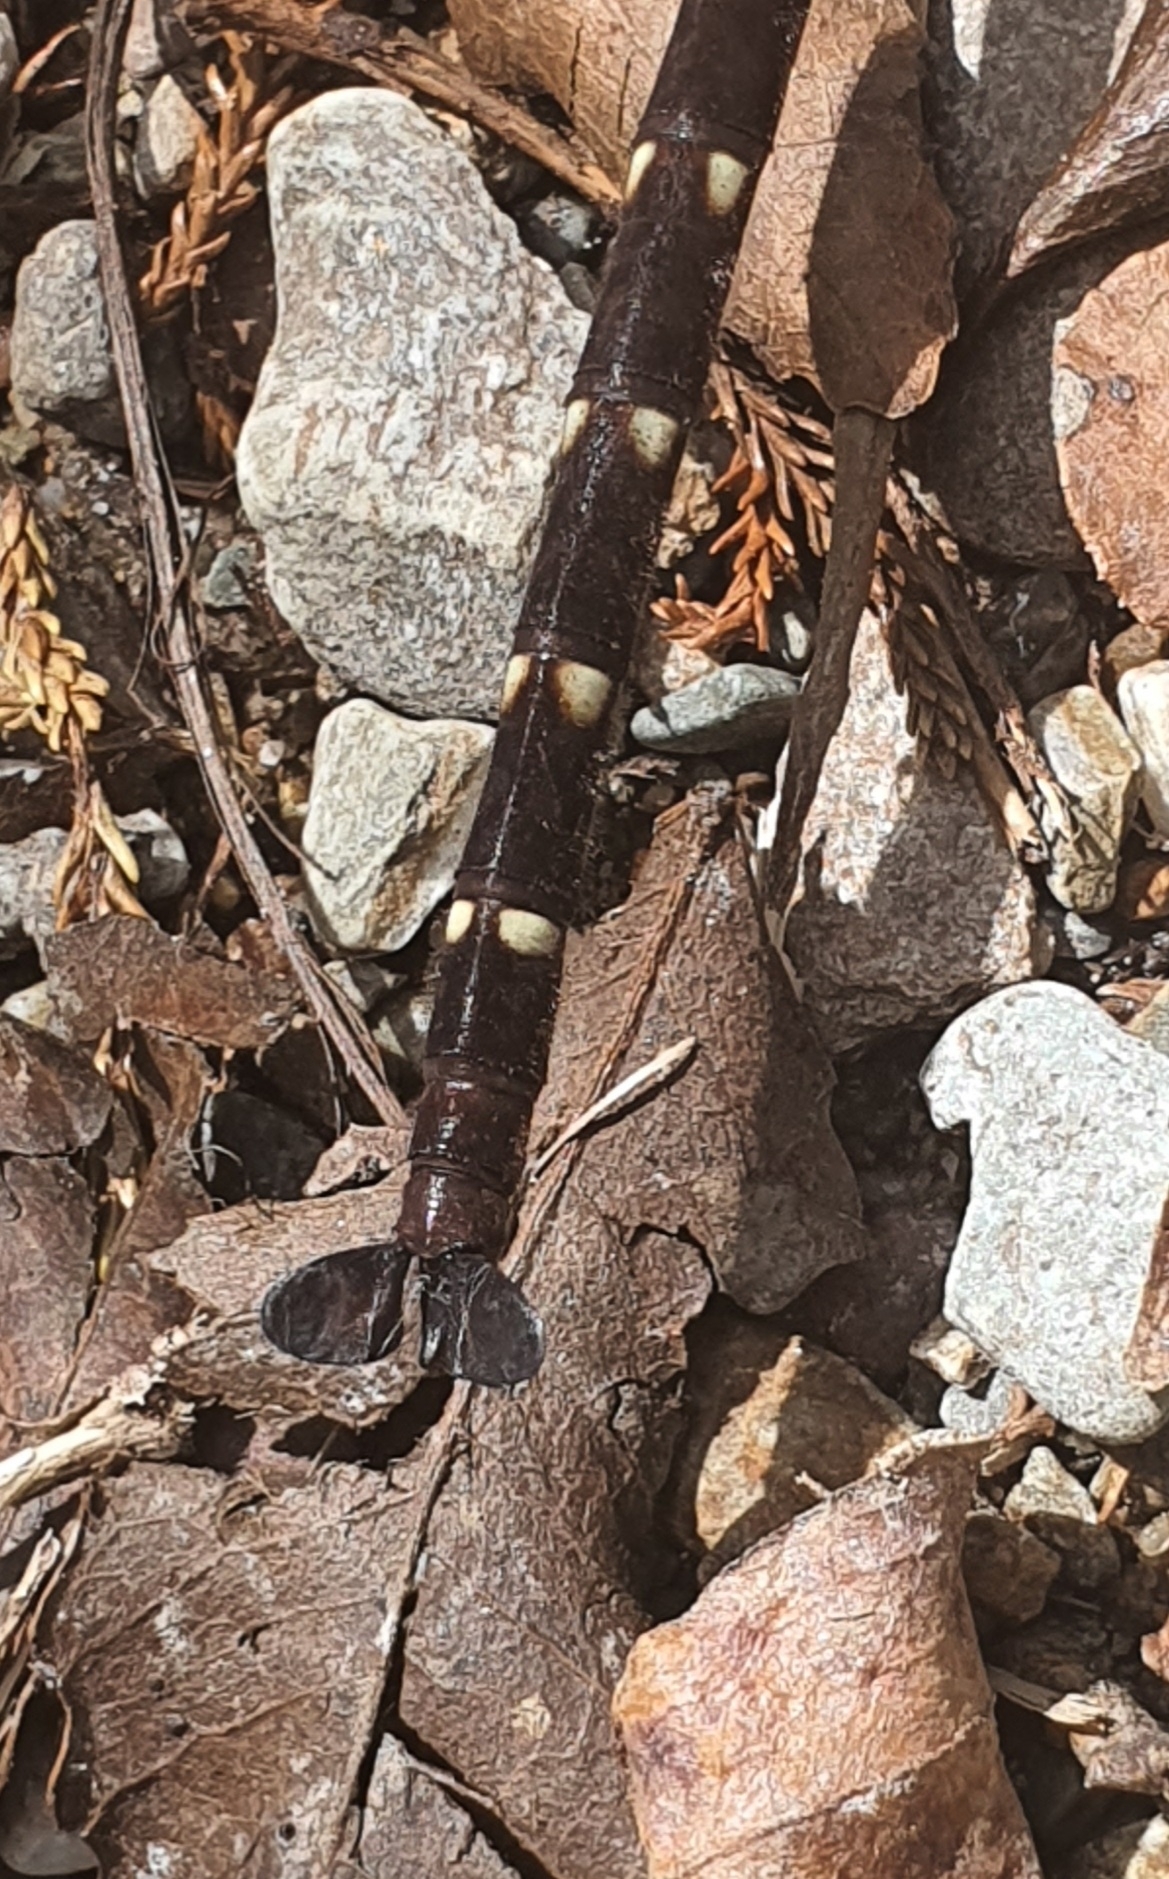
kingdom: Animalia
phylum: Arthropoda
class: Insecta
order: Odonata
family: Petaluridae
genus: Uropetala
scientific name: Uropetala carovei
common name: Bush giant dragonfly
